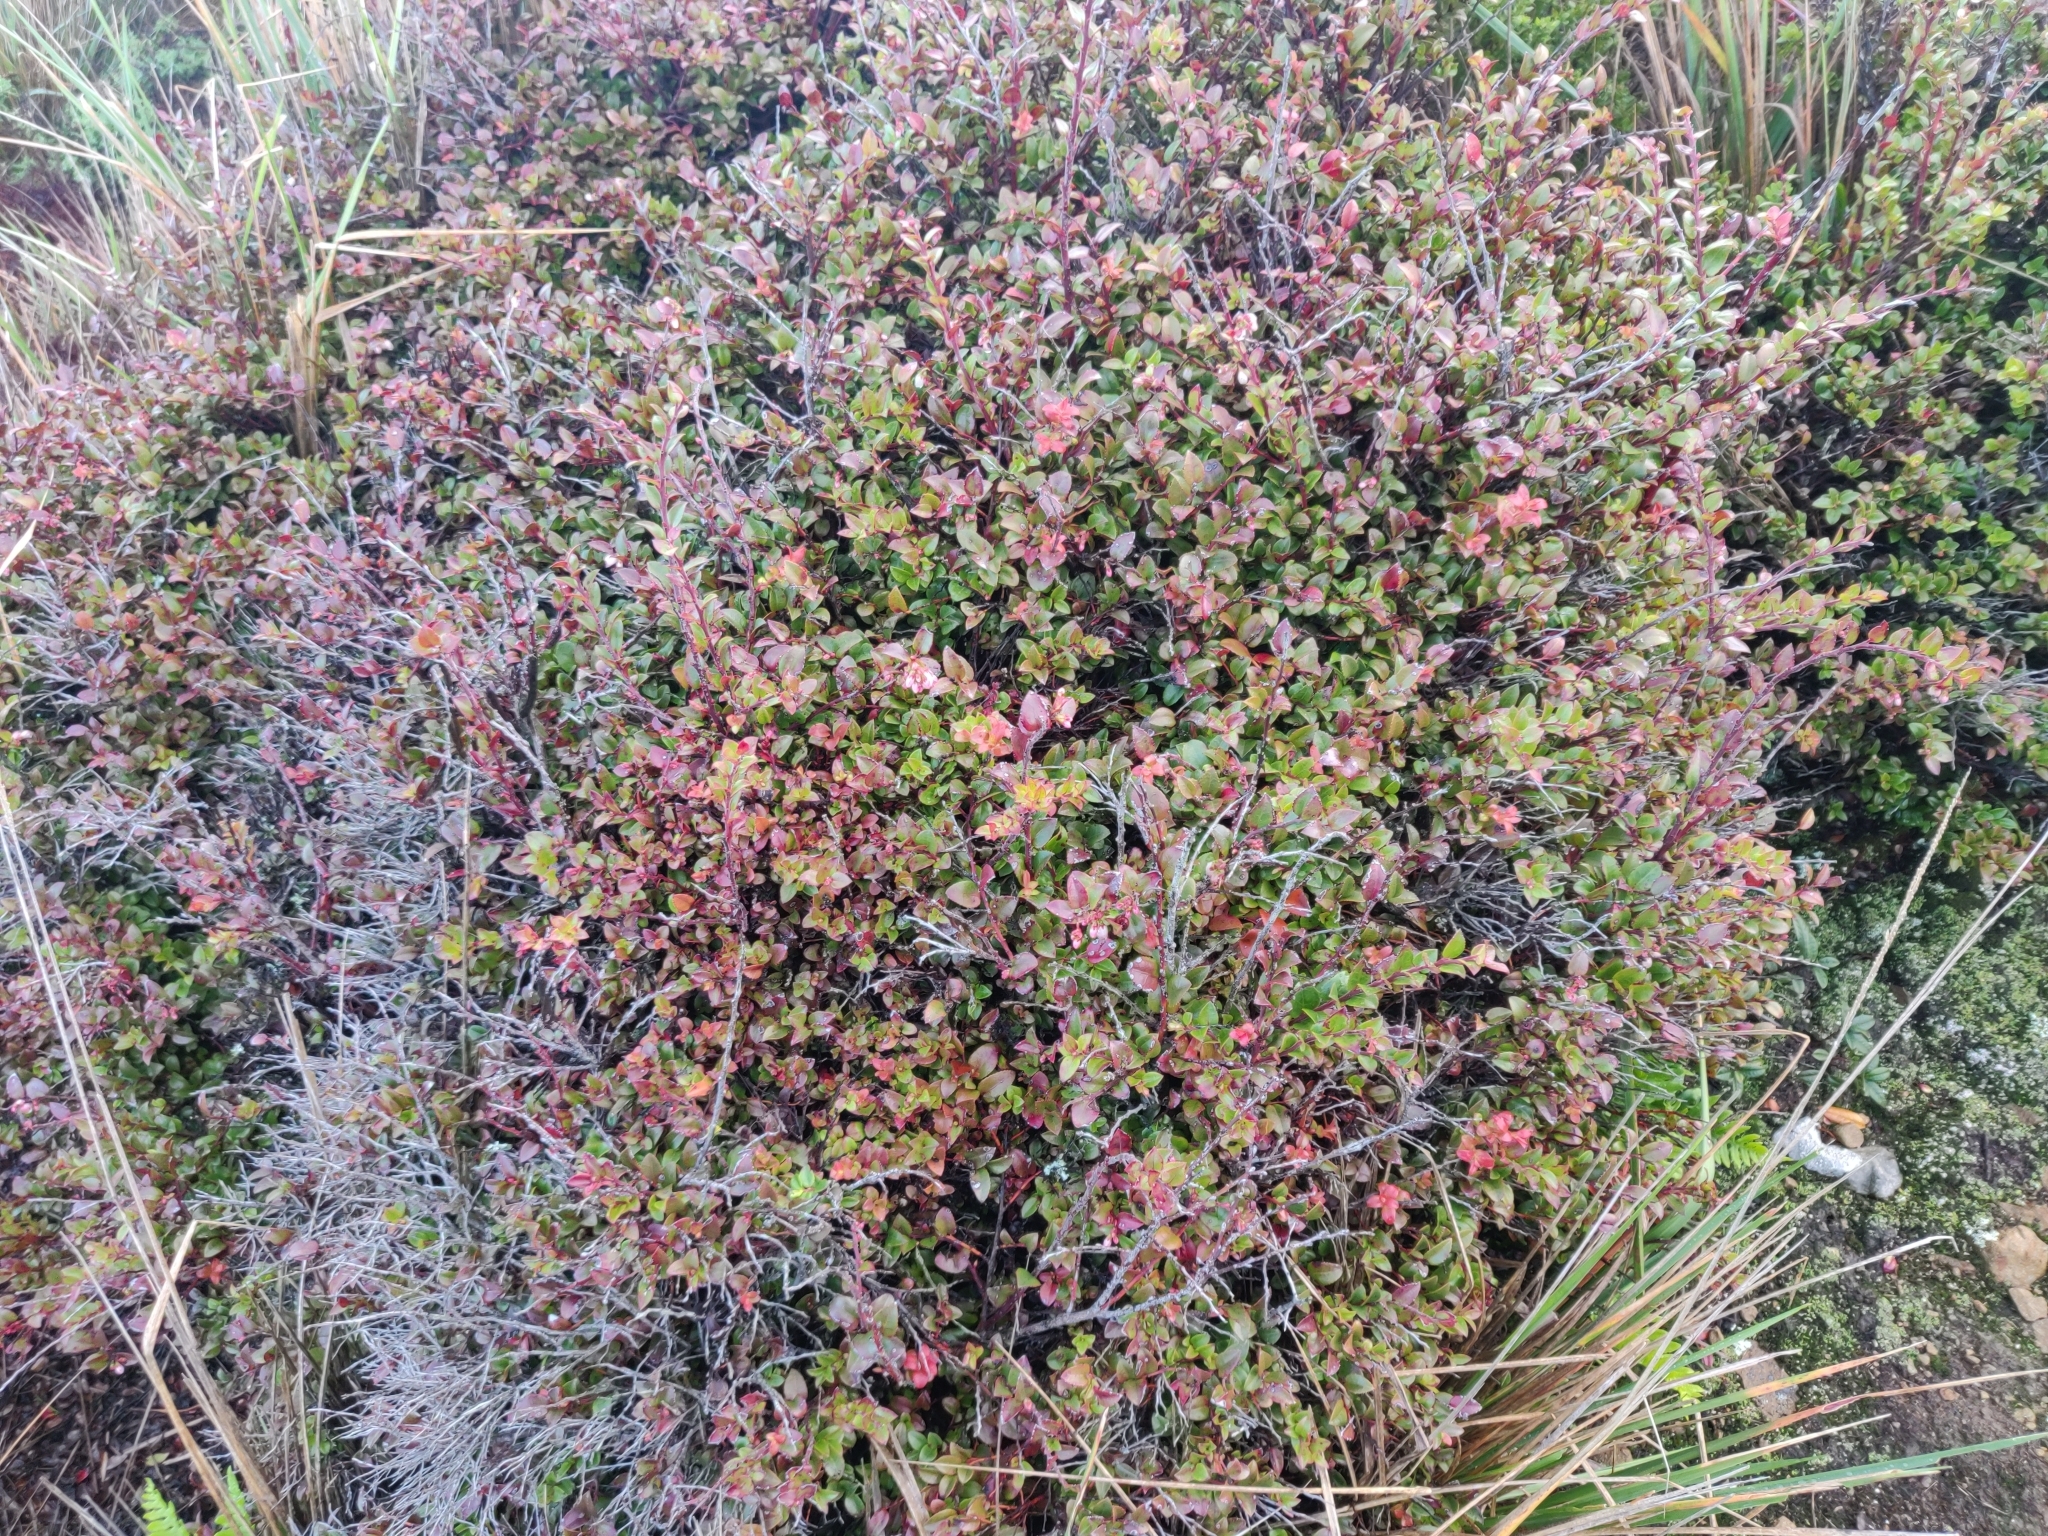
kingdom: Plantae
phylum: Tracheophyta
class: Magnoliopsida
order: Ericales
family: Ericaceae
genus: Vaccinium
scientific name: Vaccinium ovatum
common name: California-huckleberry
